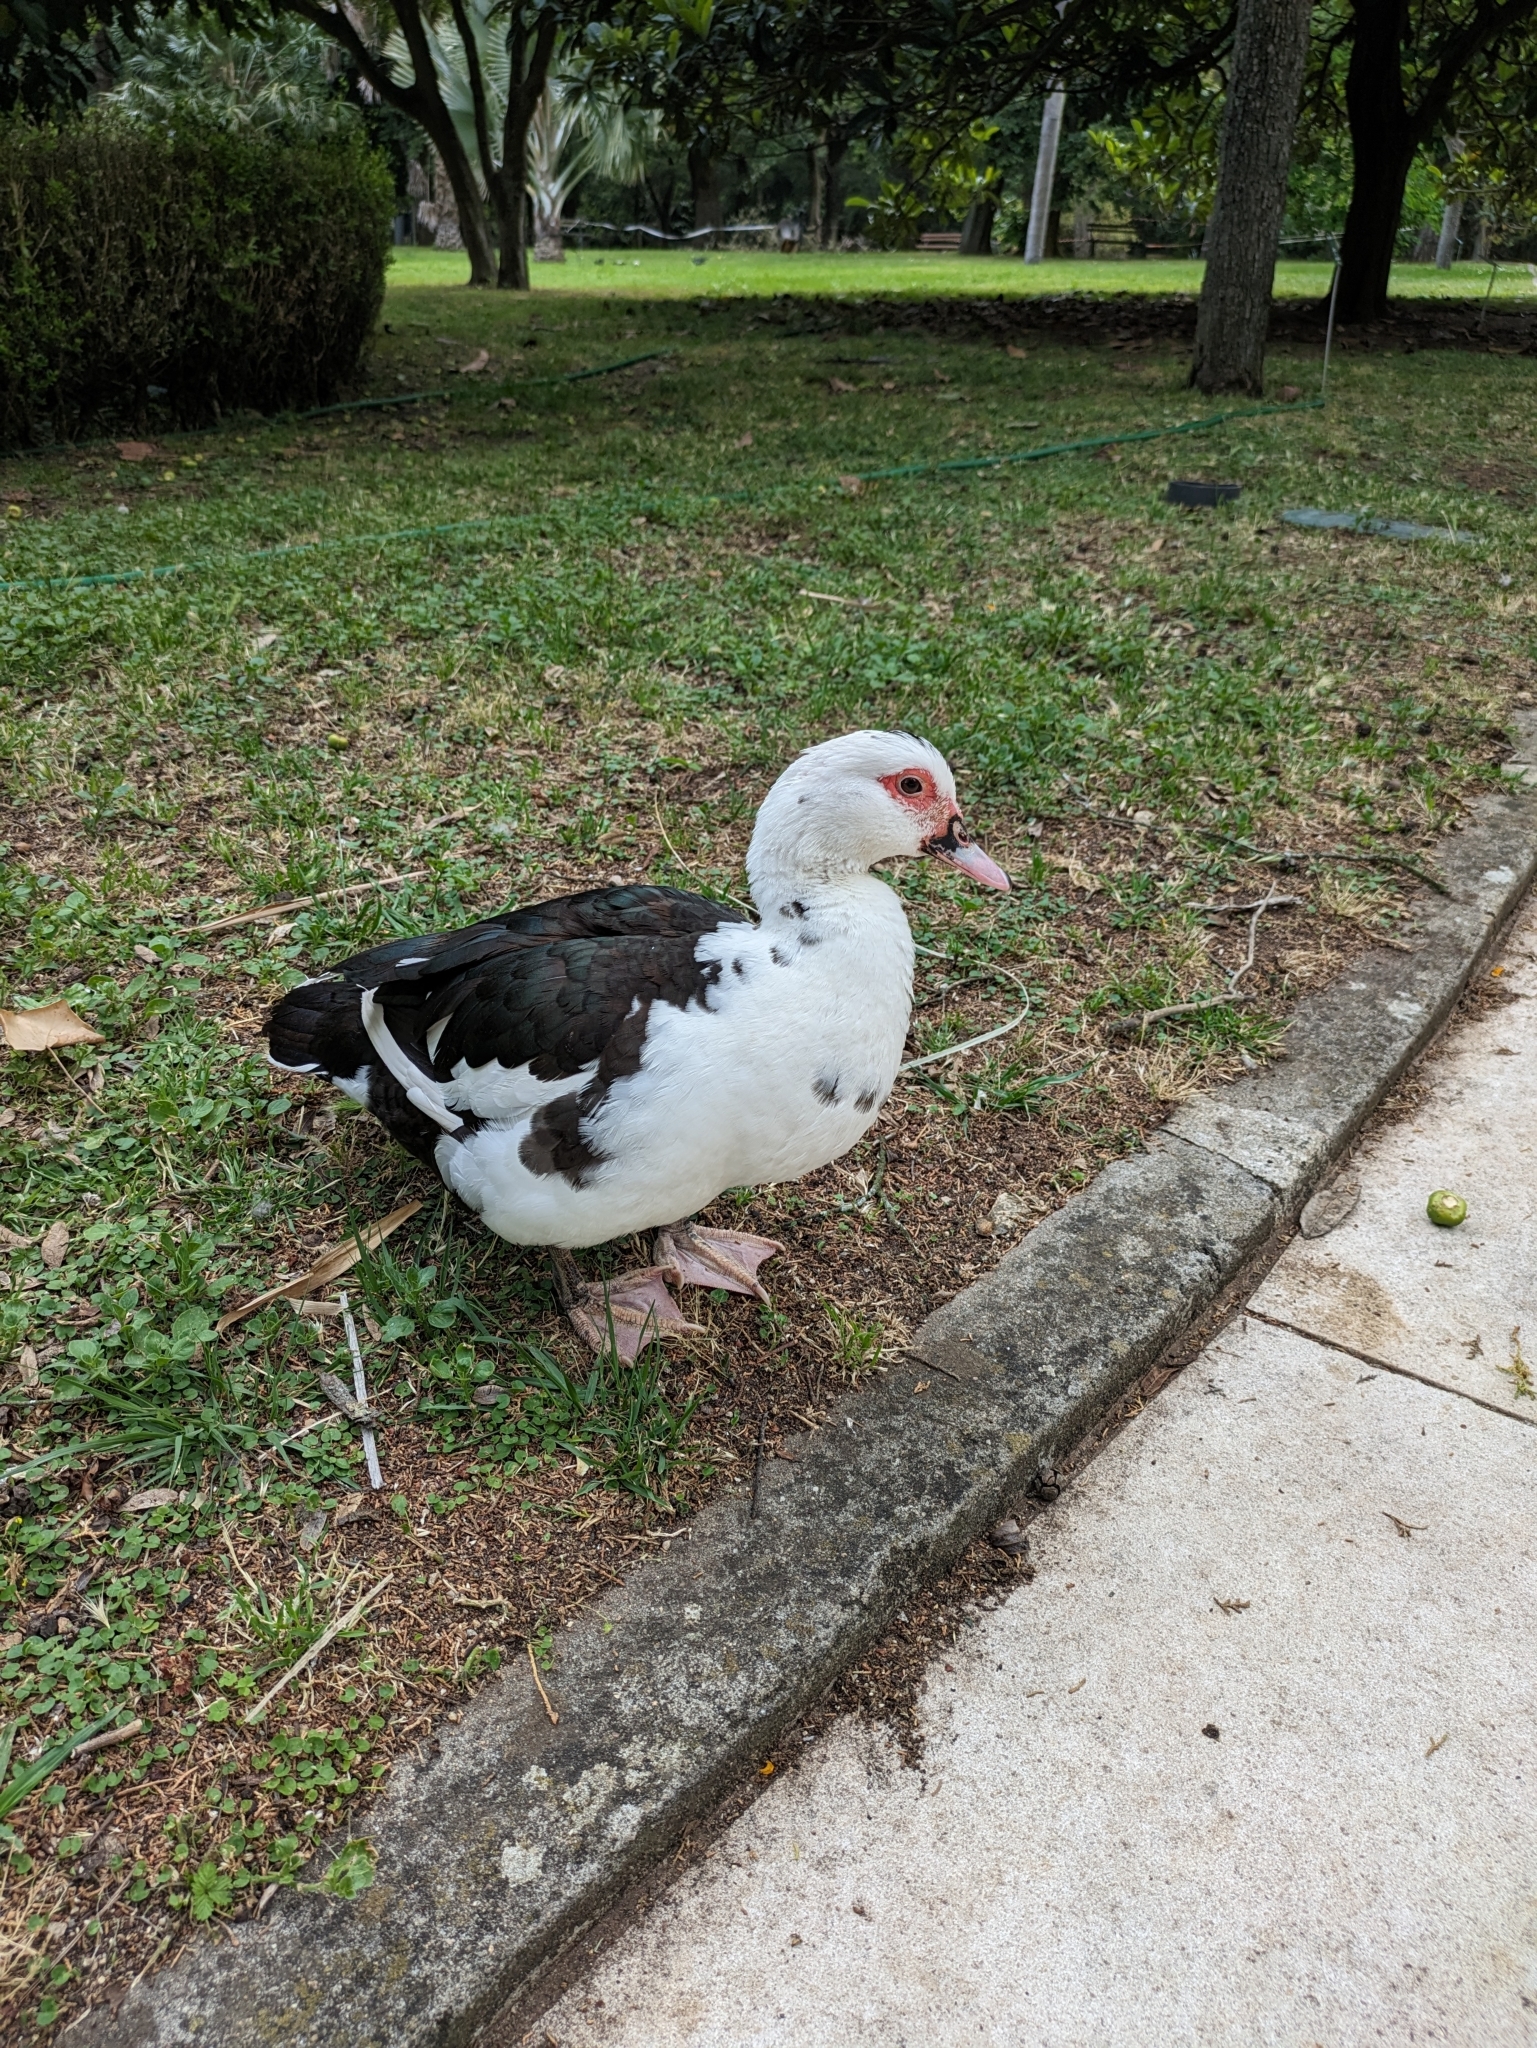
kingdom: Animalia
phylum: Chordata
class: Aves
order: Anseriformes
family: Anatidae
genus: Cairina
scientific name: Cairina moschata
